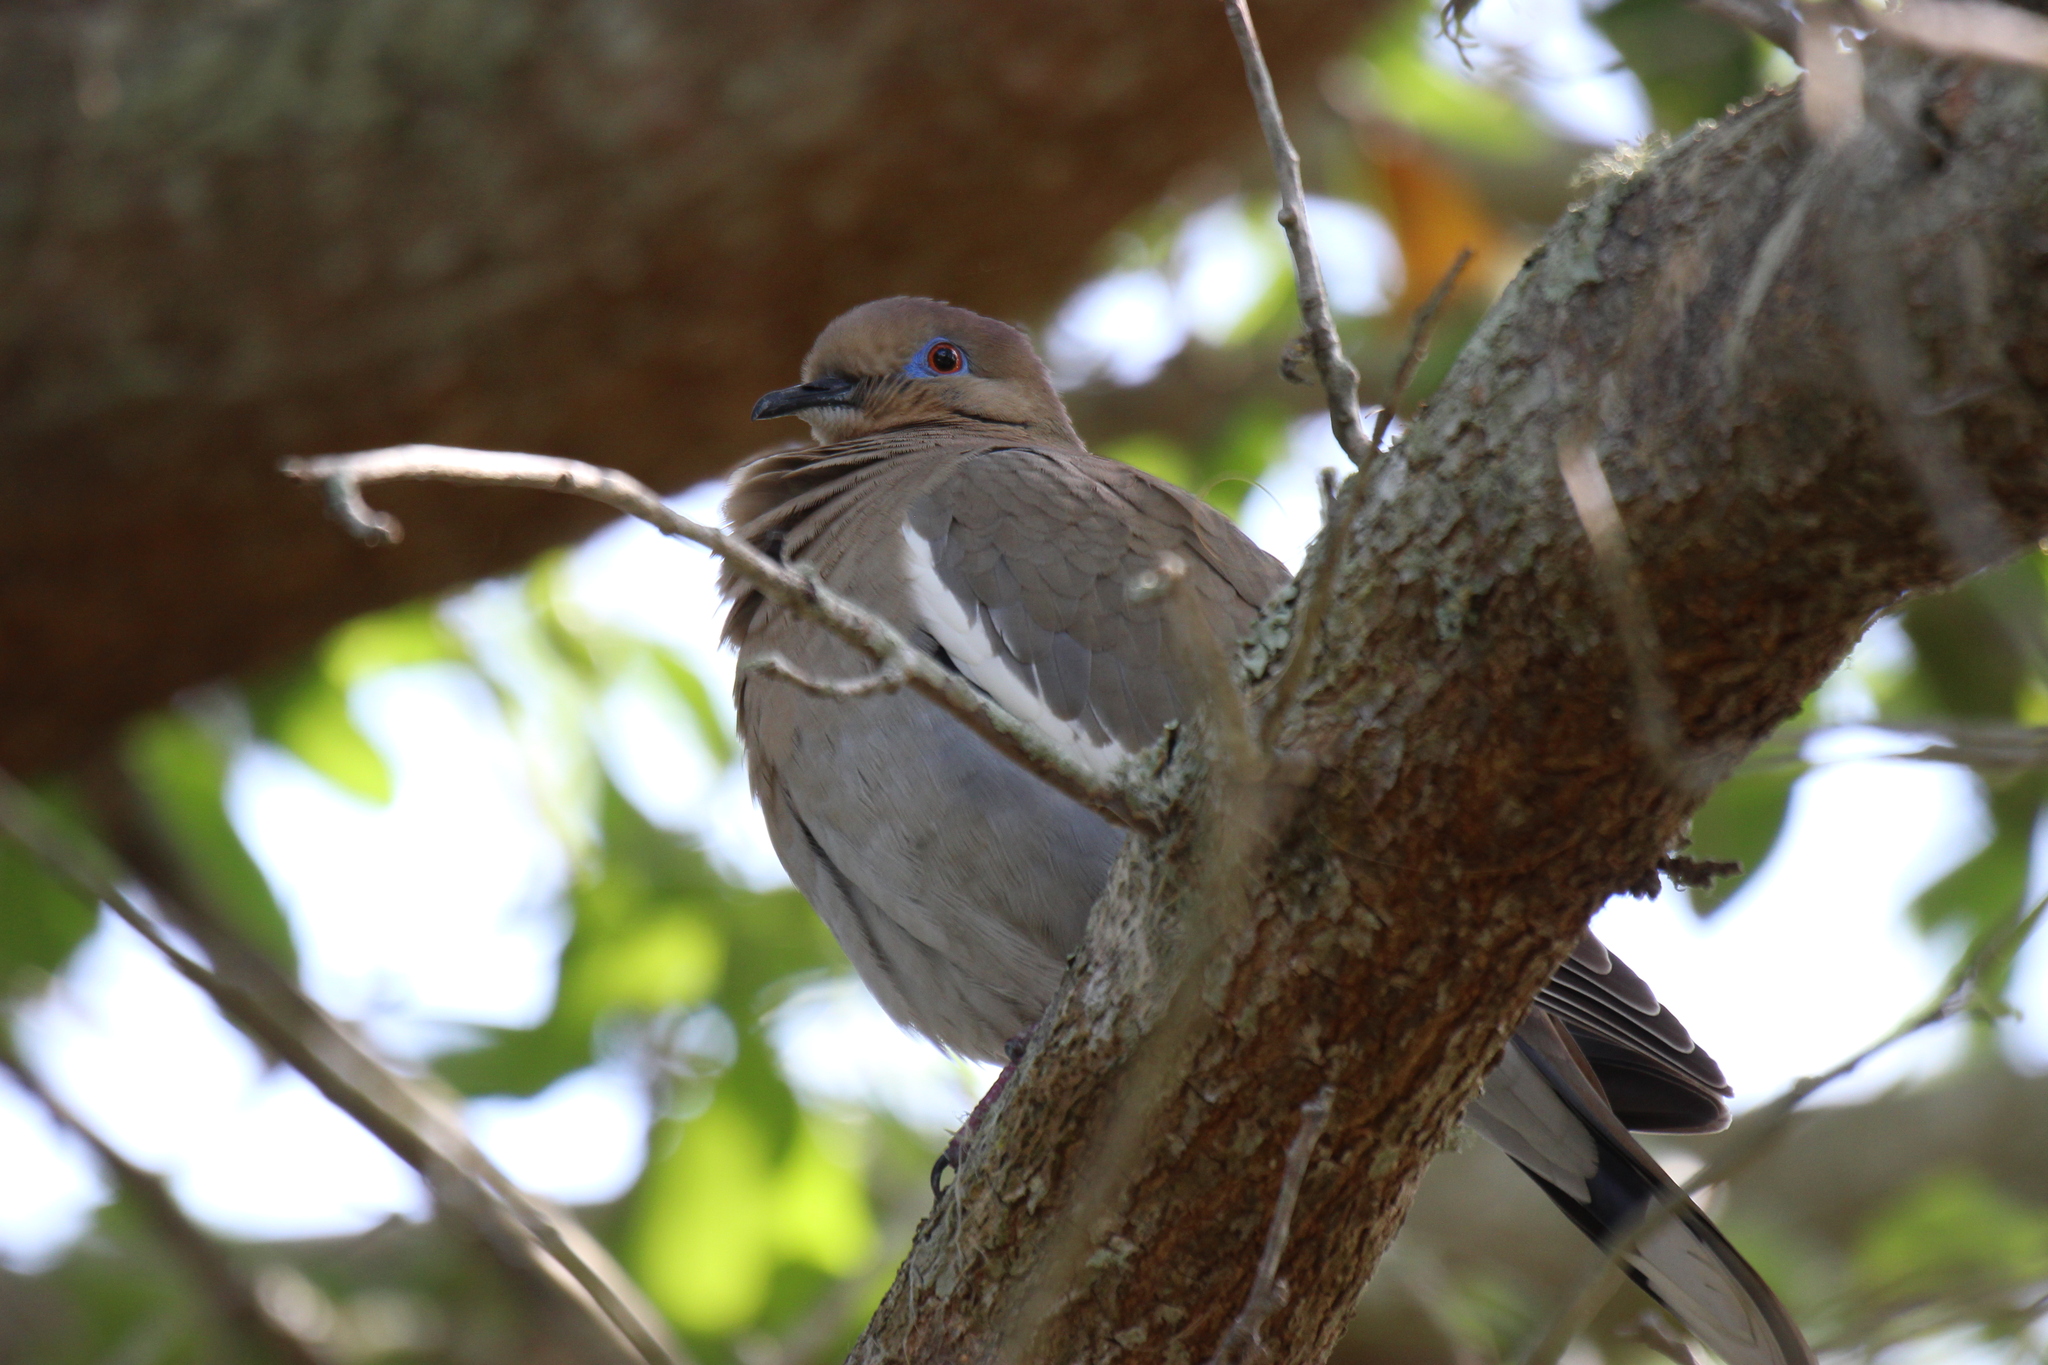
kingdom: Animalia
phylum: Chordata
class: Aves
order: Columbiformes
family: Columbidae
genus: Zenaida
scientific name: Zenaida asiatica
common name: White-winged dove
